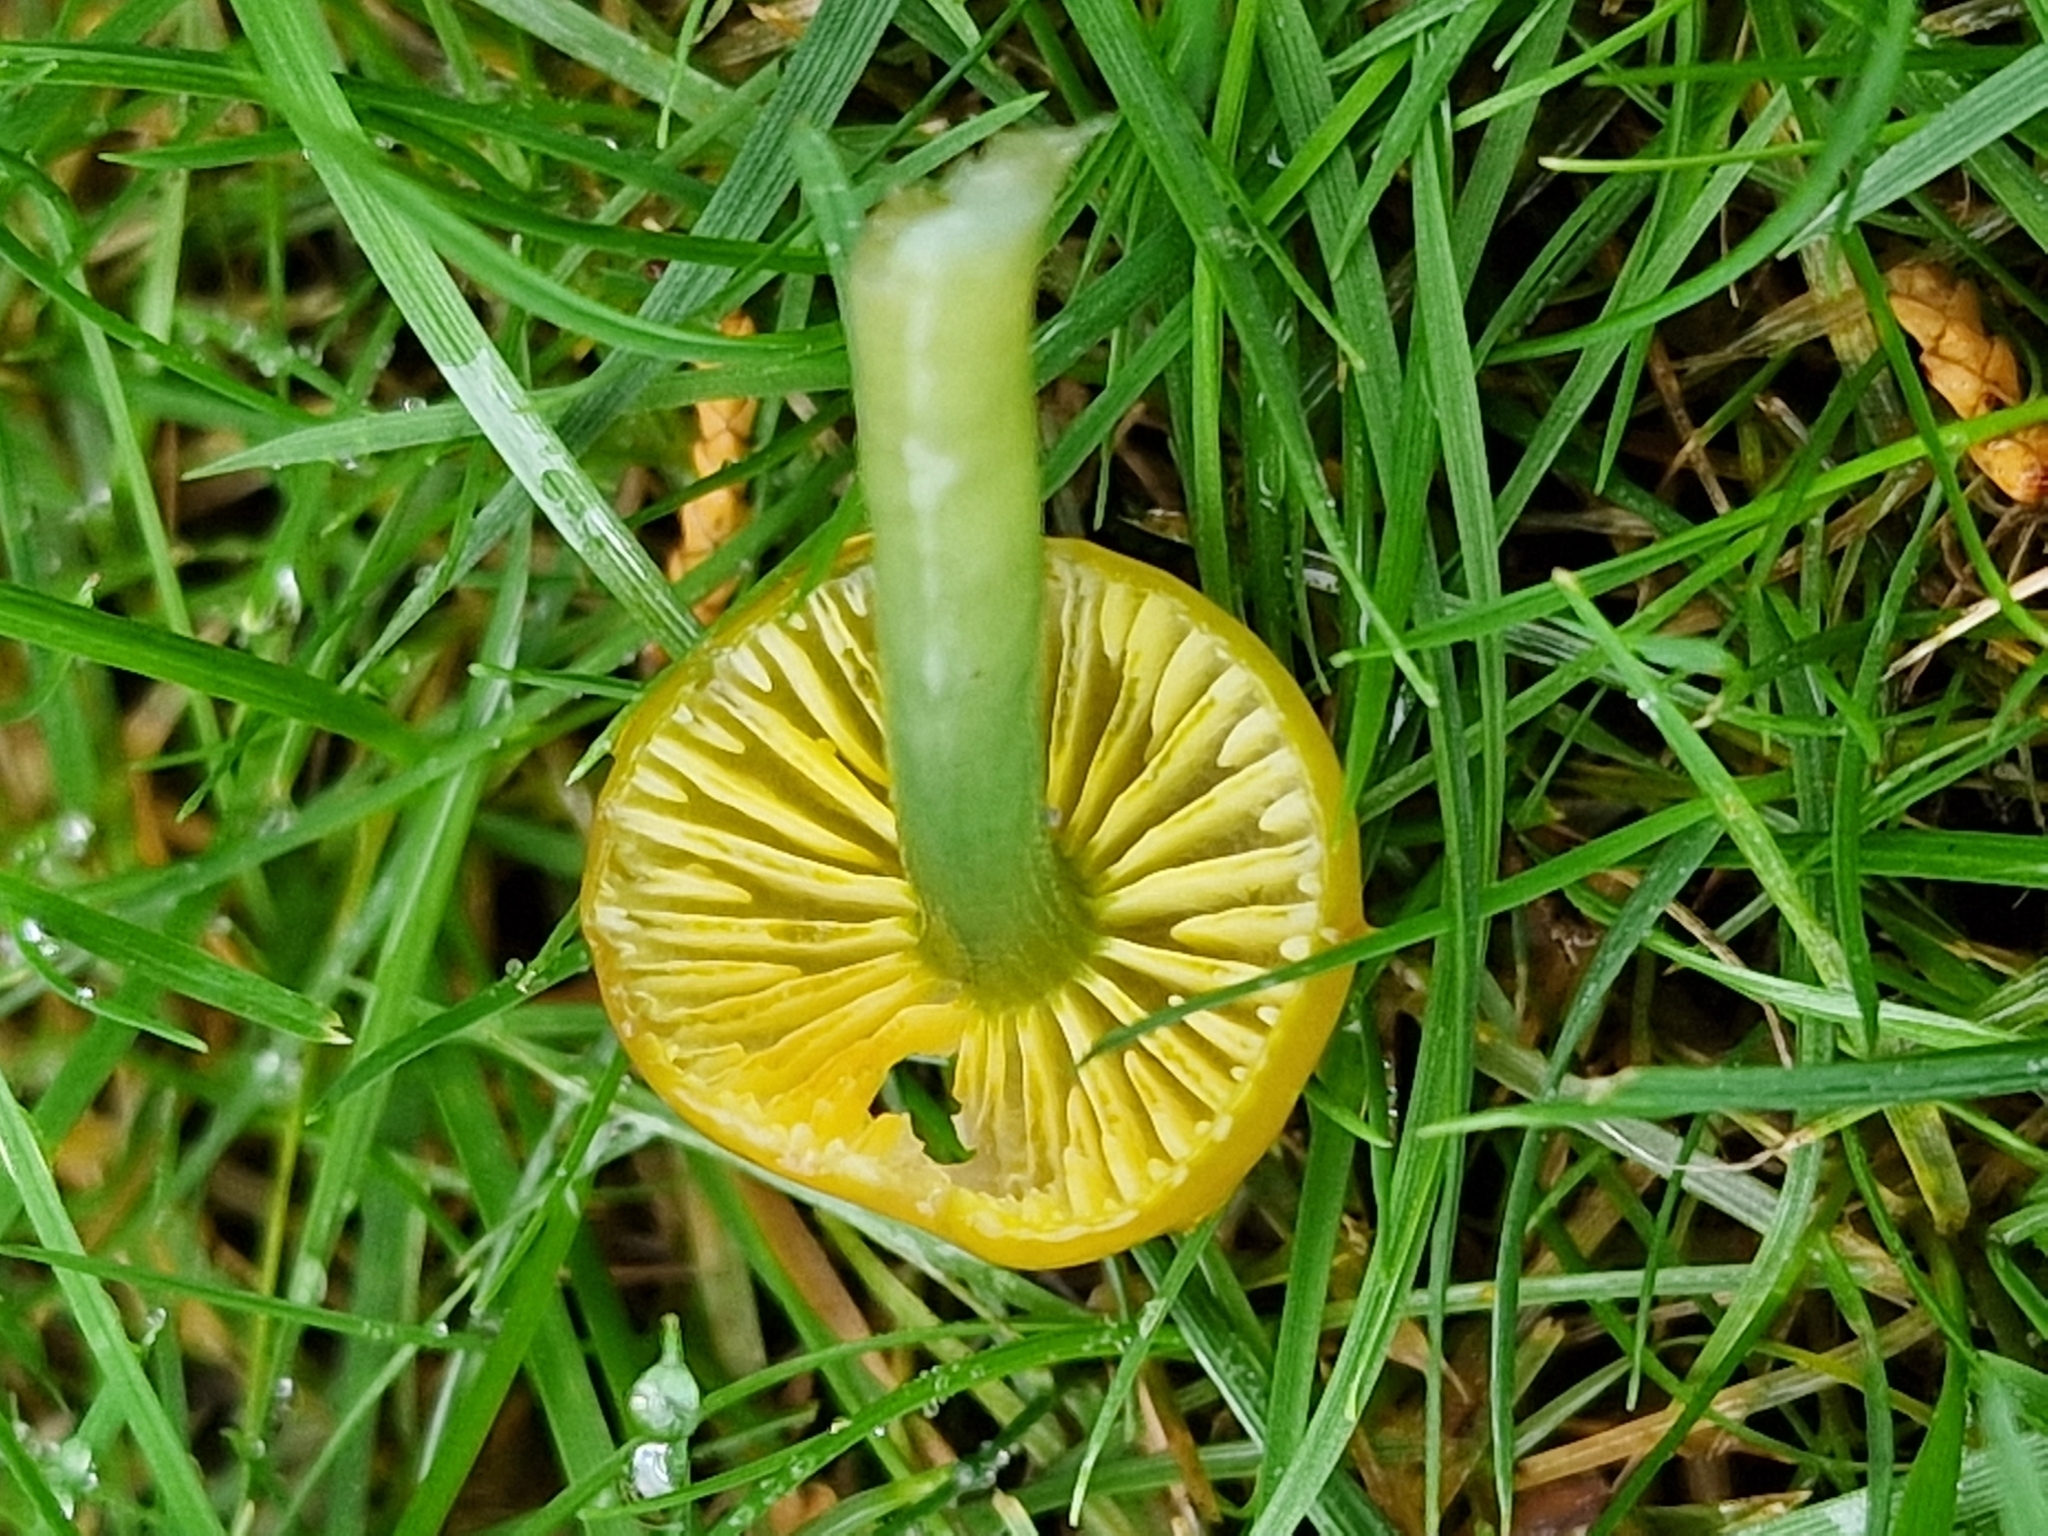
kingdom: Fungi
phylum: Basidiomycota
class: Agaricomycetes
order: Agaricales
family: Hygrophoraceae
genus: Gliophorus
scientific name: Gliophorus psittacinus
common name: Parrot wax-cap
